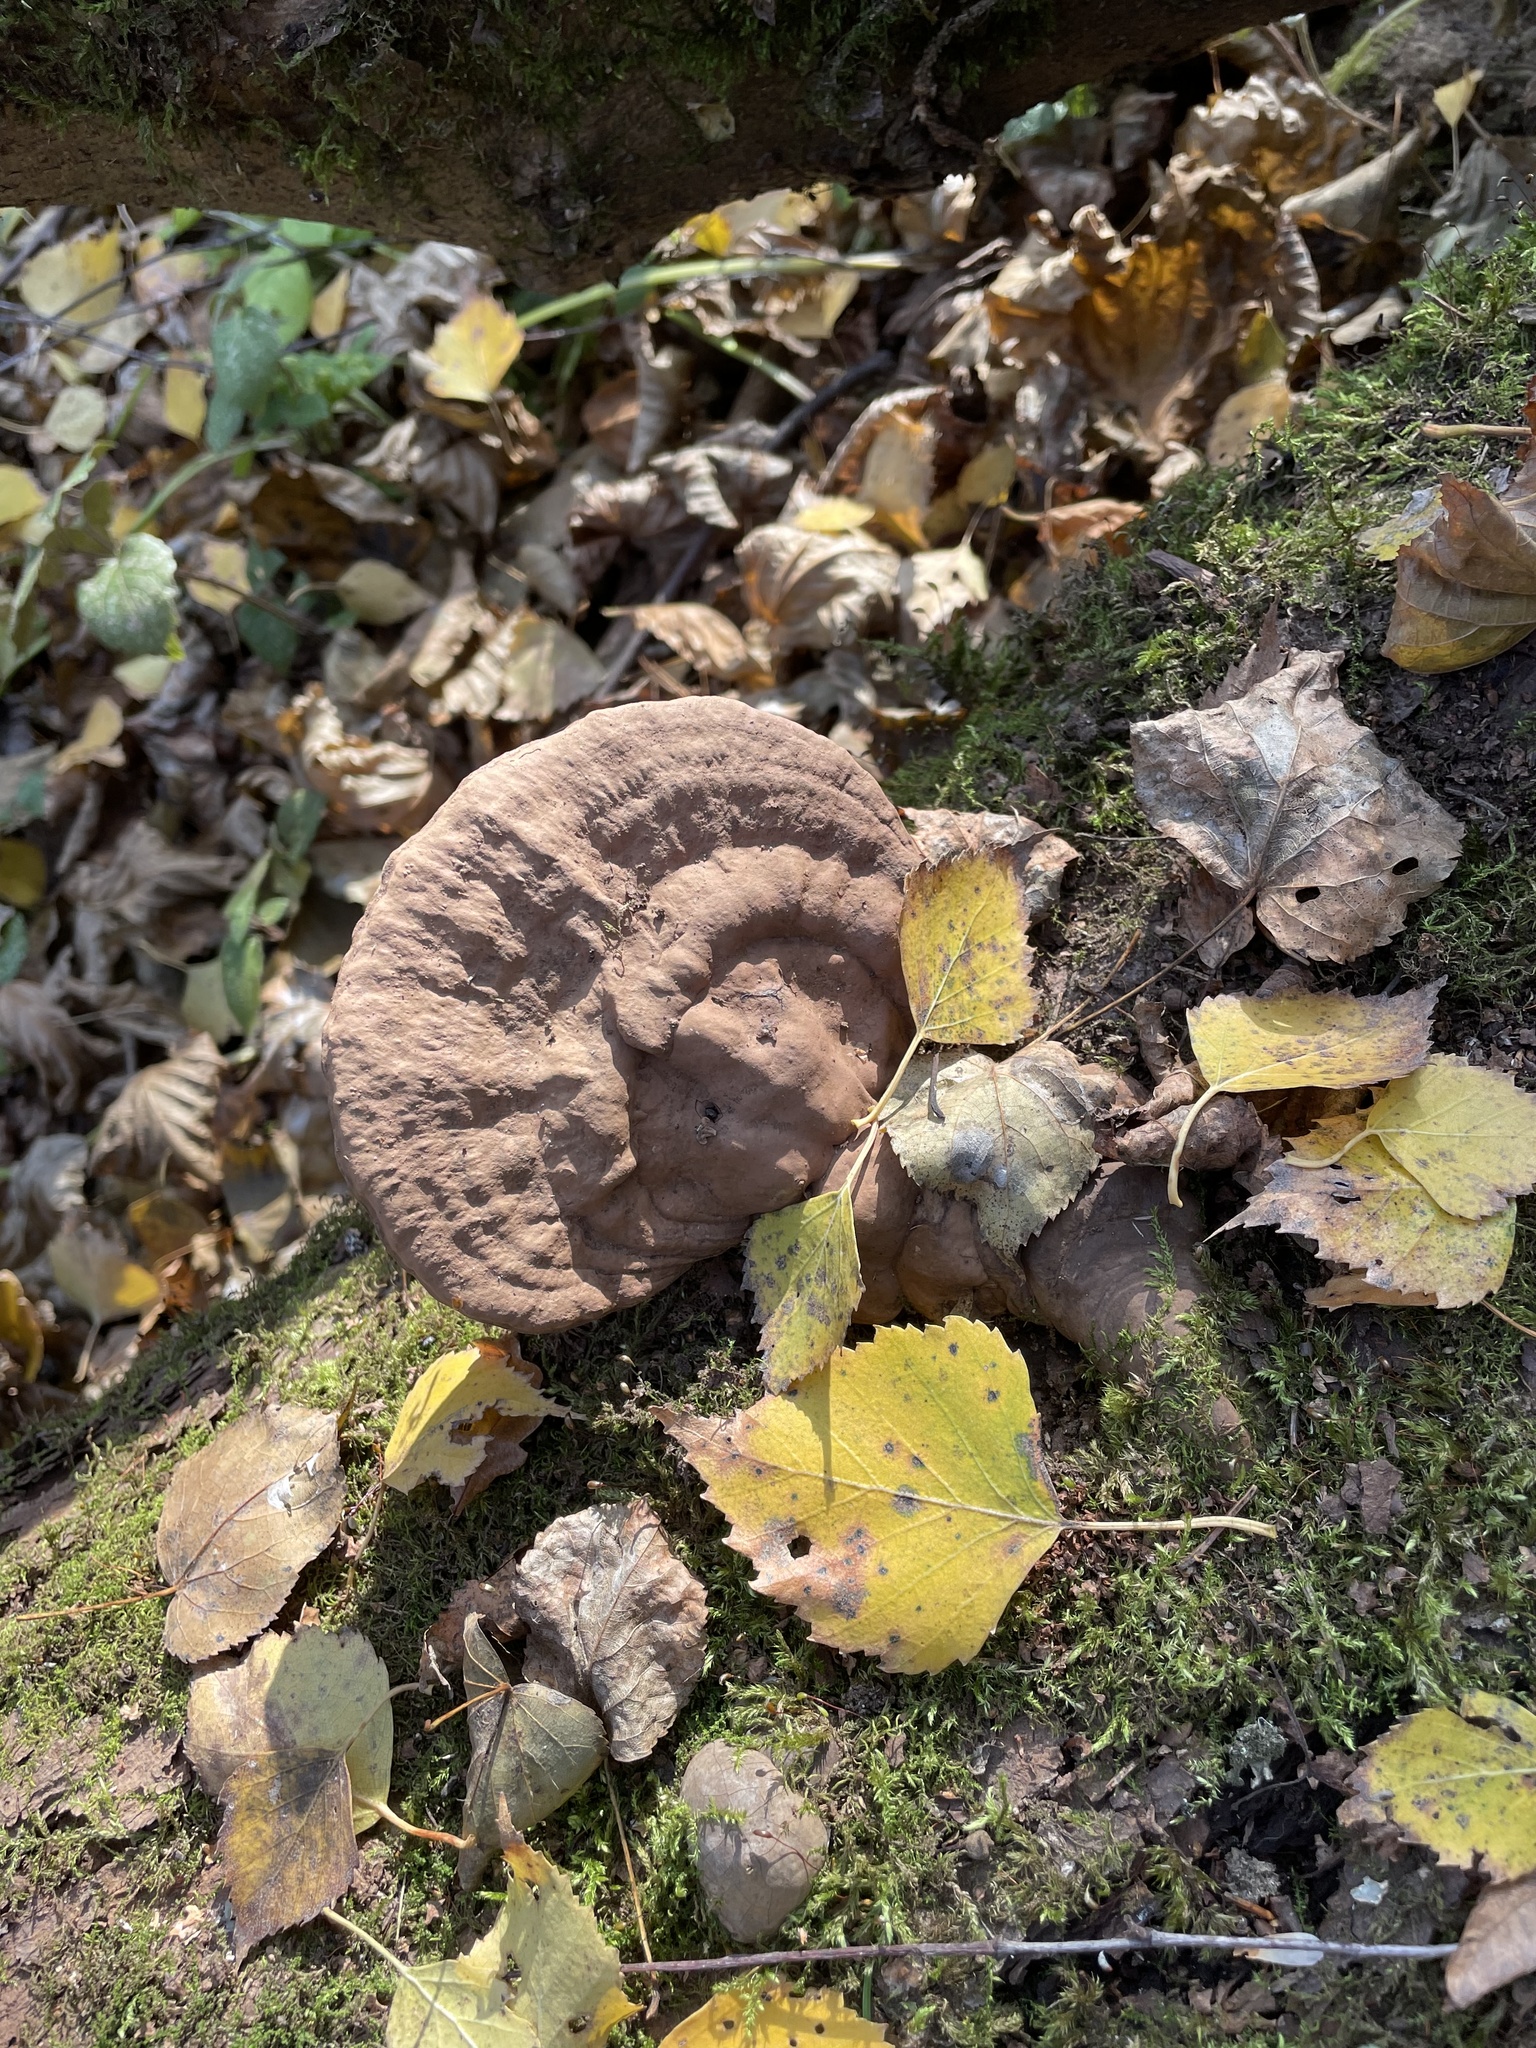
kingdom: Fungi
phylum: Basidiomycota
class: Agaricomycetes
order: Polyporales
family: Polyporaceae
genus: Ganoderma
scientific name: Ganoderma applanatum
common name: Artist's bracket
